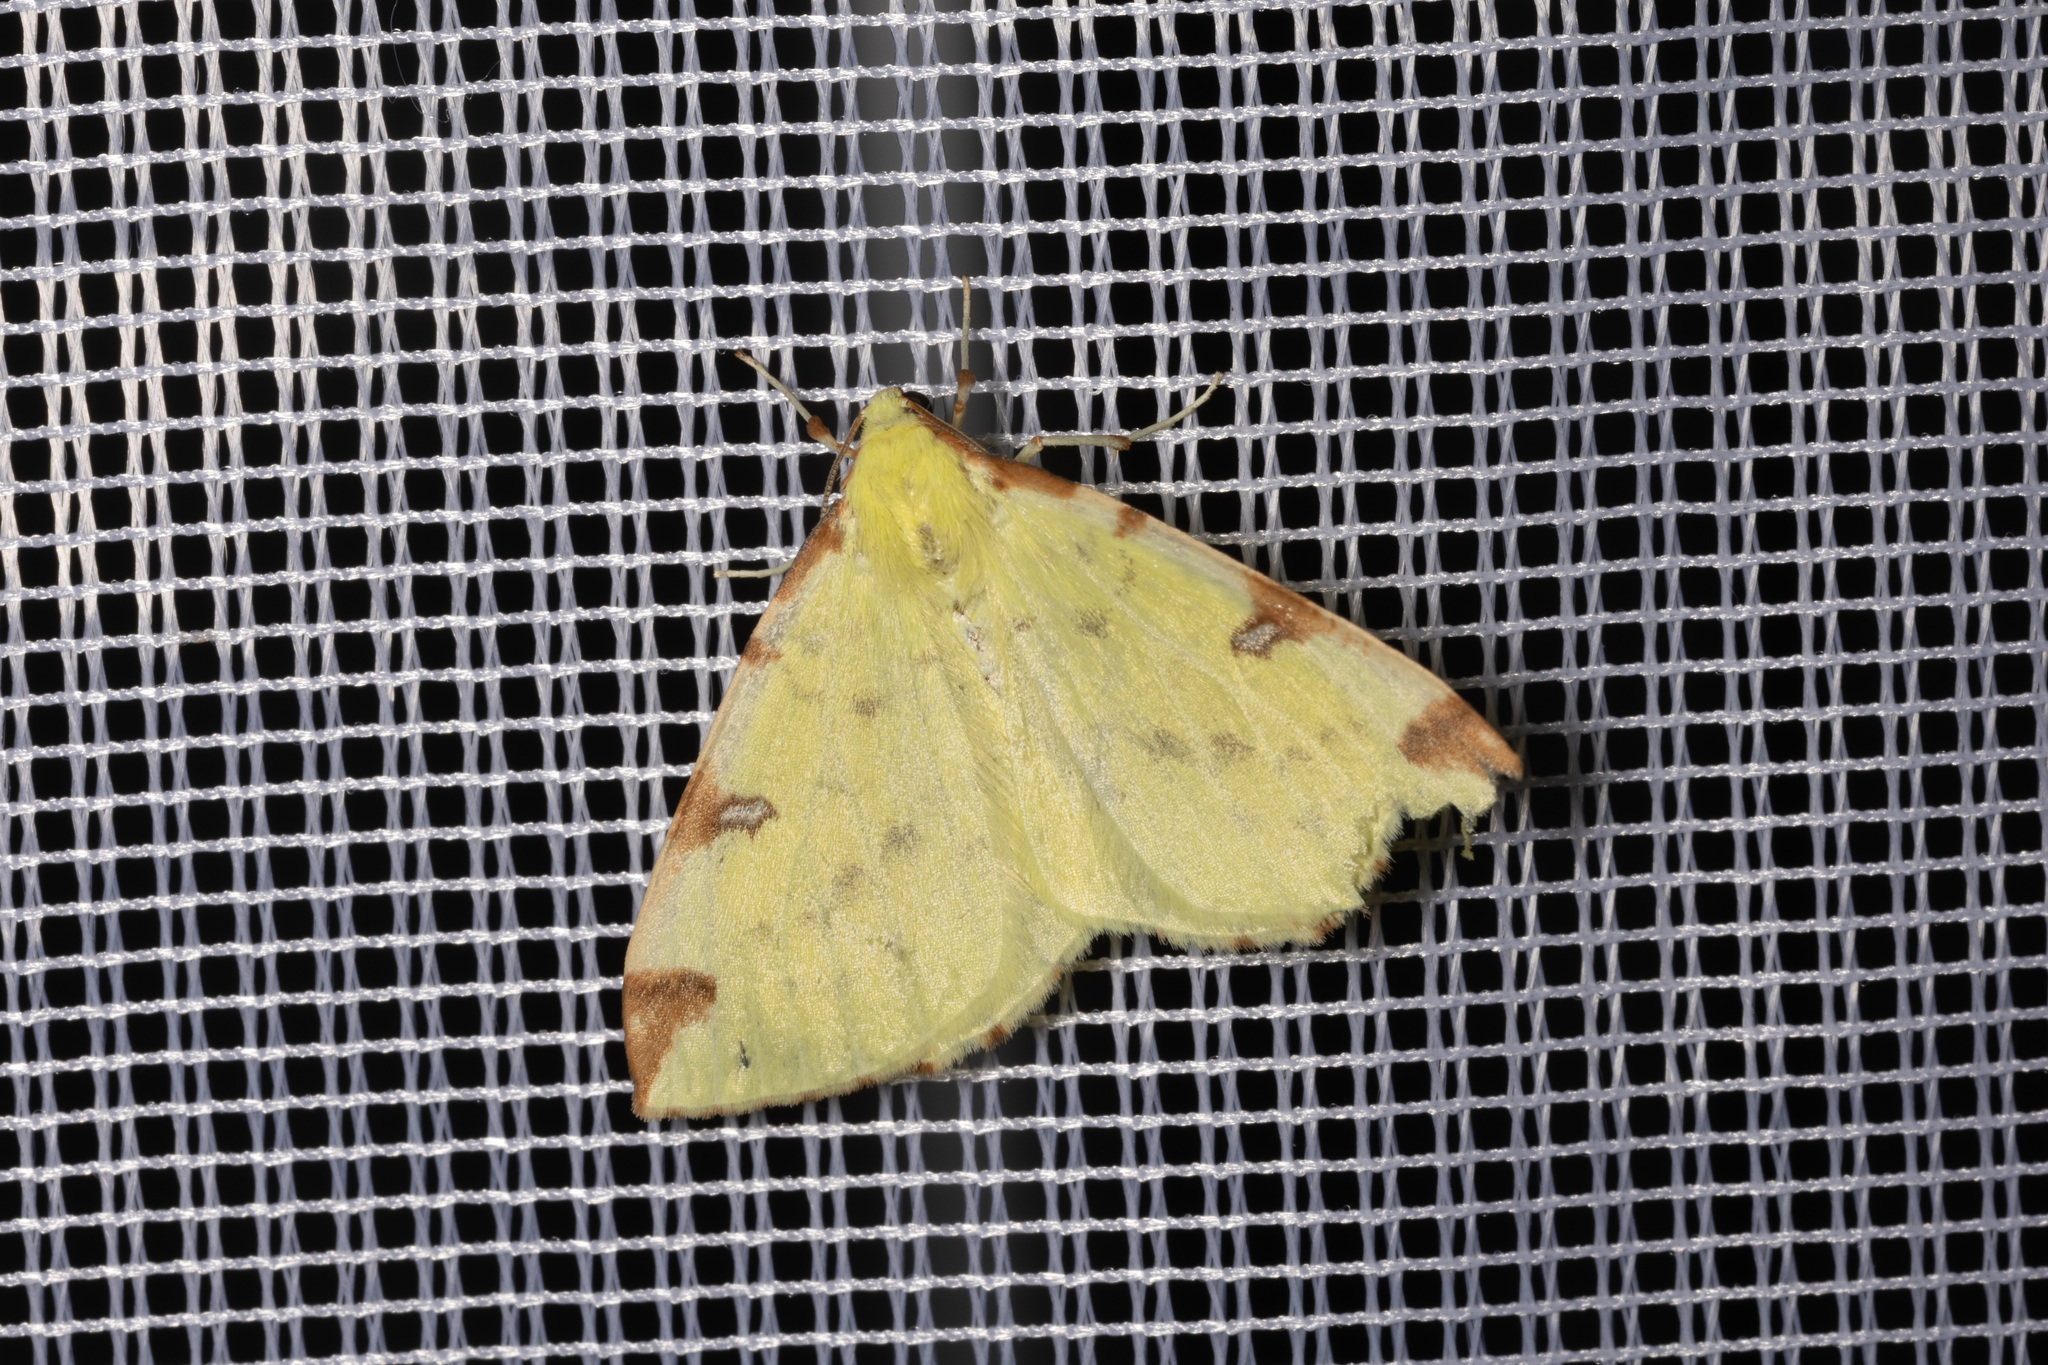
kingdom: Animalia
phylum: Arthropoda
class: Insecta
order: Lepidoptera
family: Geometridae
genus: Opisthograptis
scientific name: Opisthograptis luteolata
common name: Brimstone moth
